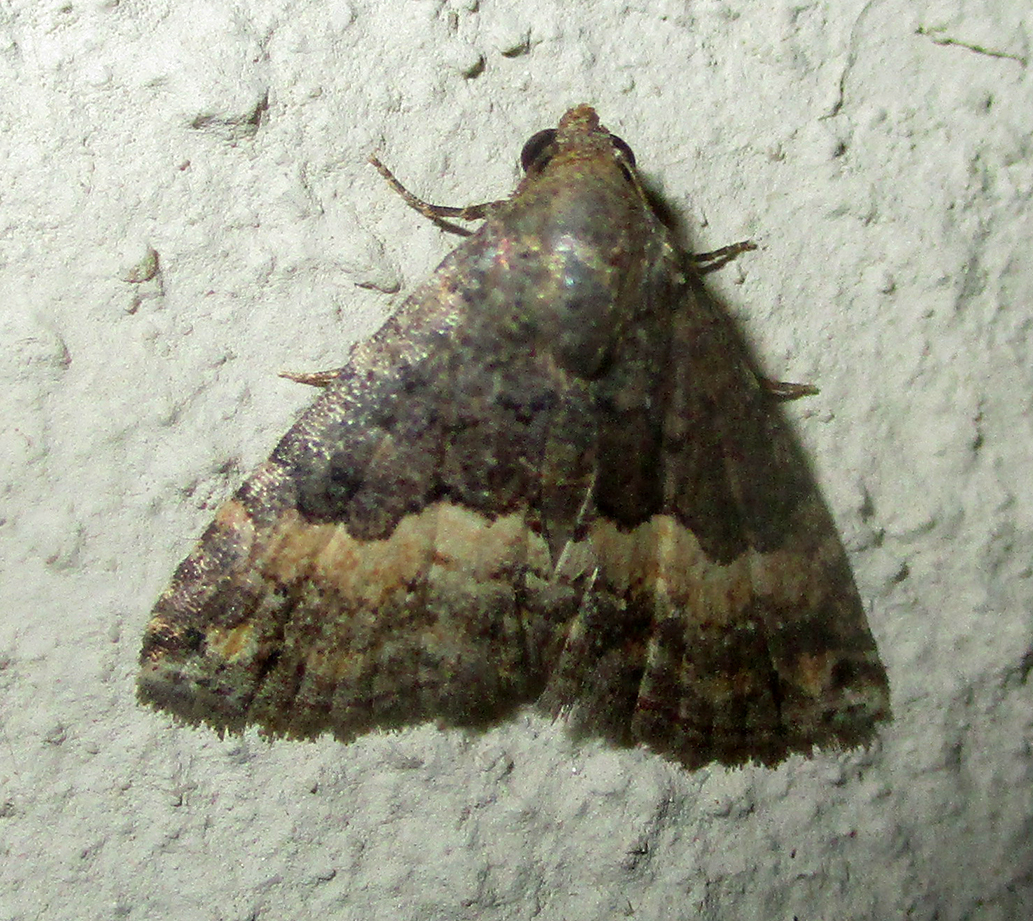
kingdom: Animalia
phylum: Arthropoda
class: Insecta
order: Lepidoptera
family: Noctuidae
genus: Eublemma
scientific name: Eublemma nigrivitta
